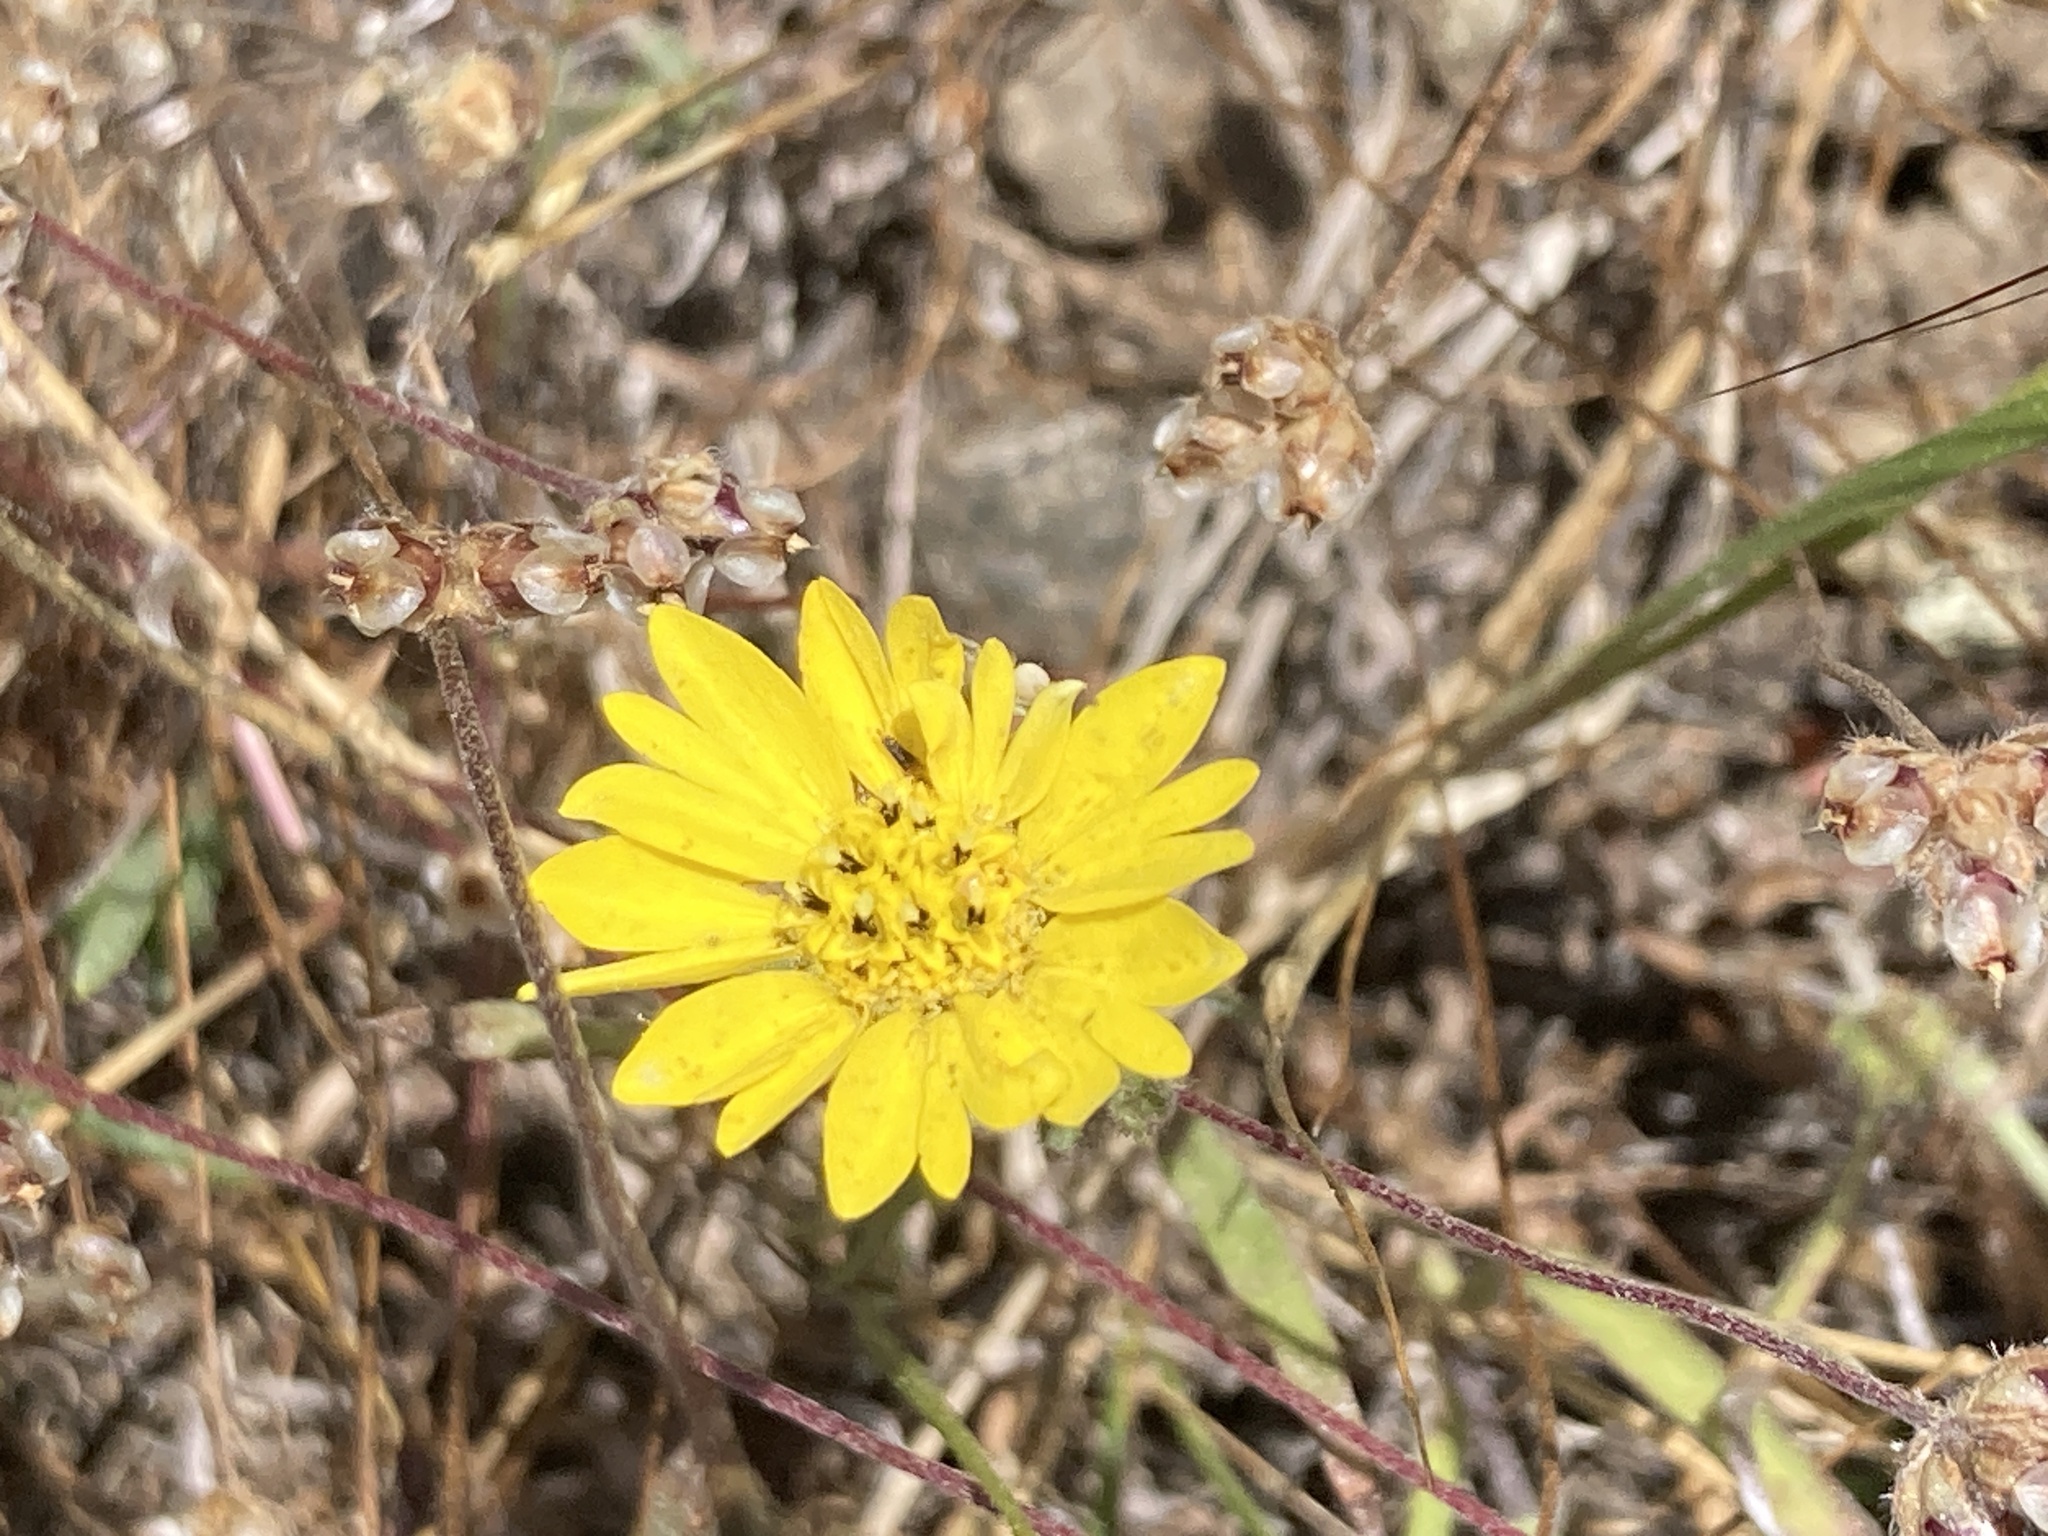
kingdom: Plantae
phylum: Tracheophyta
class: Magnoliopsida
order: Asterales
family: Asteraceae
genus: Hemizonia
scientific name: Hemizonia congesta
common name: Hayfield tarweed
